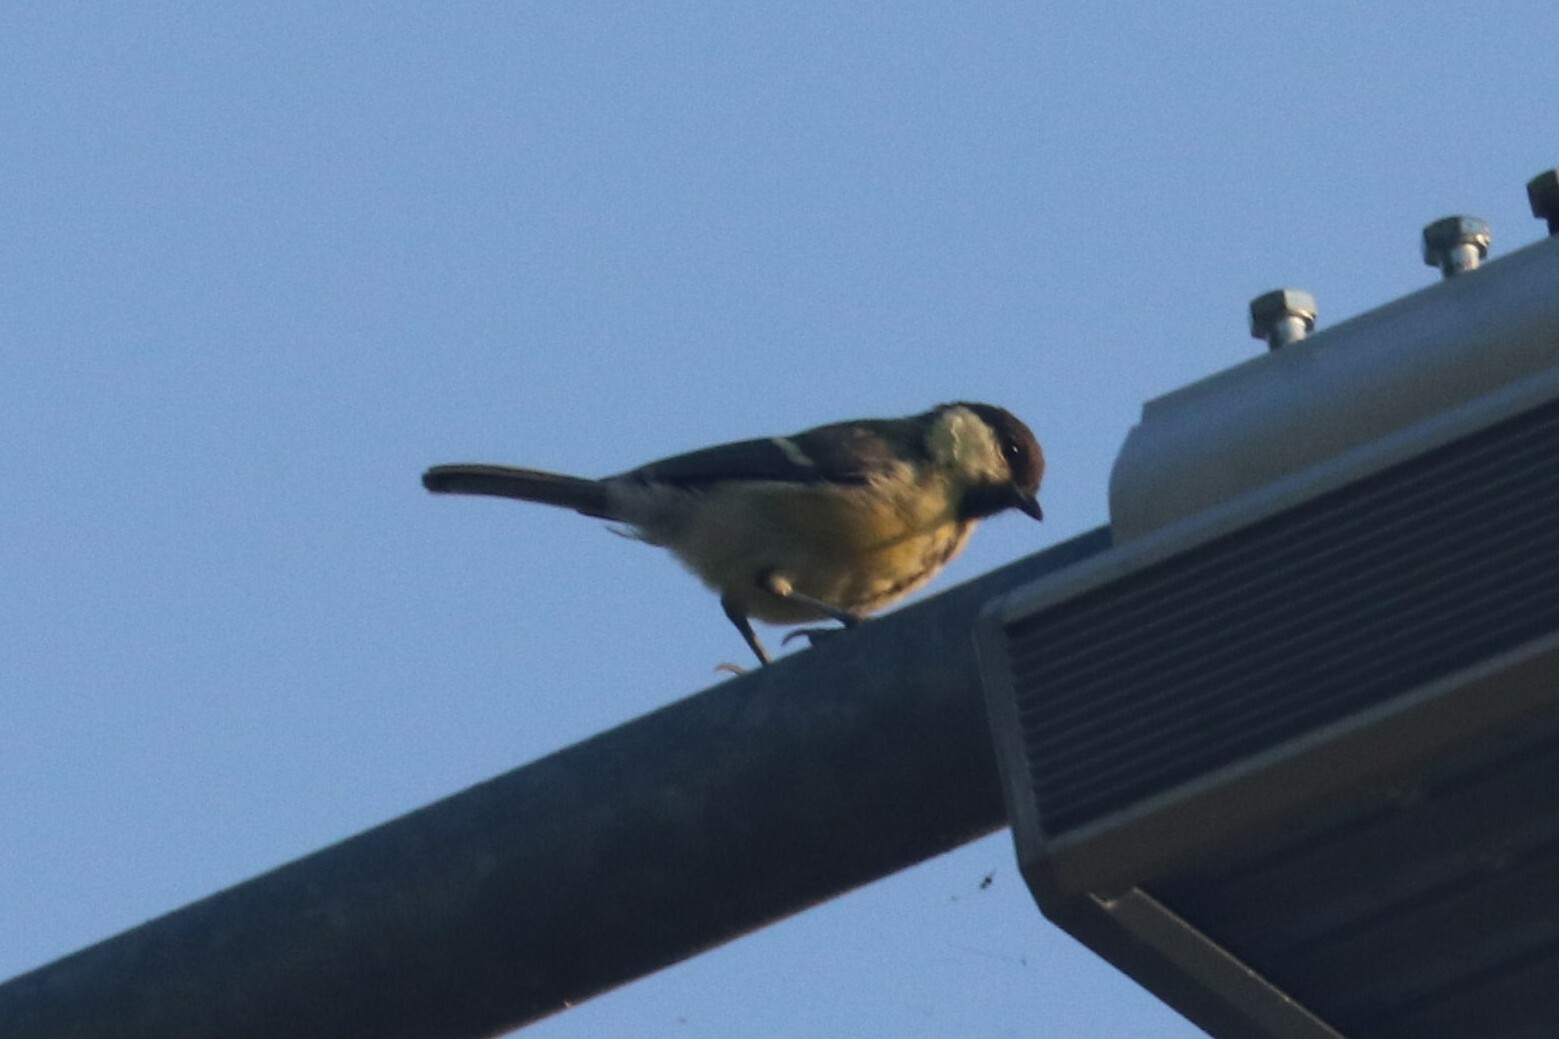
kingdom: Animalia
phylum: Chordata
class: Aves
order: Passeriformes
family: Paridae
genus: Parus
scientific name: Parus major
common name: Great tit
